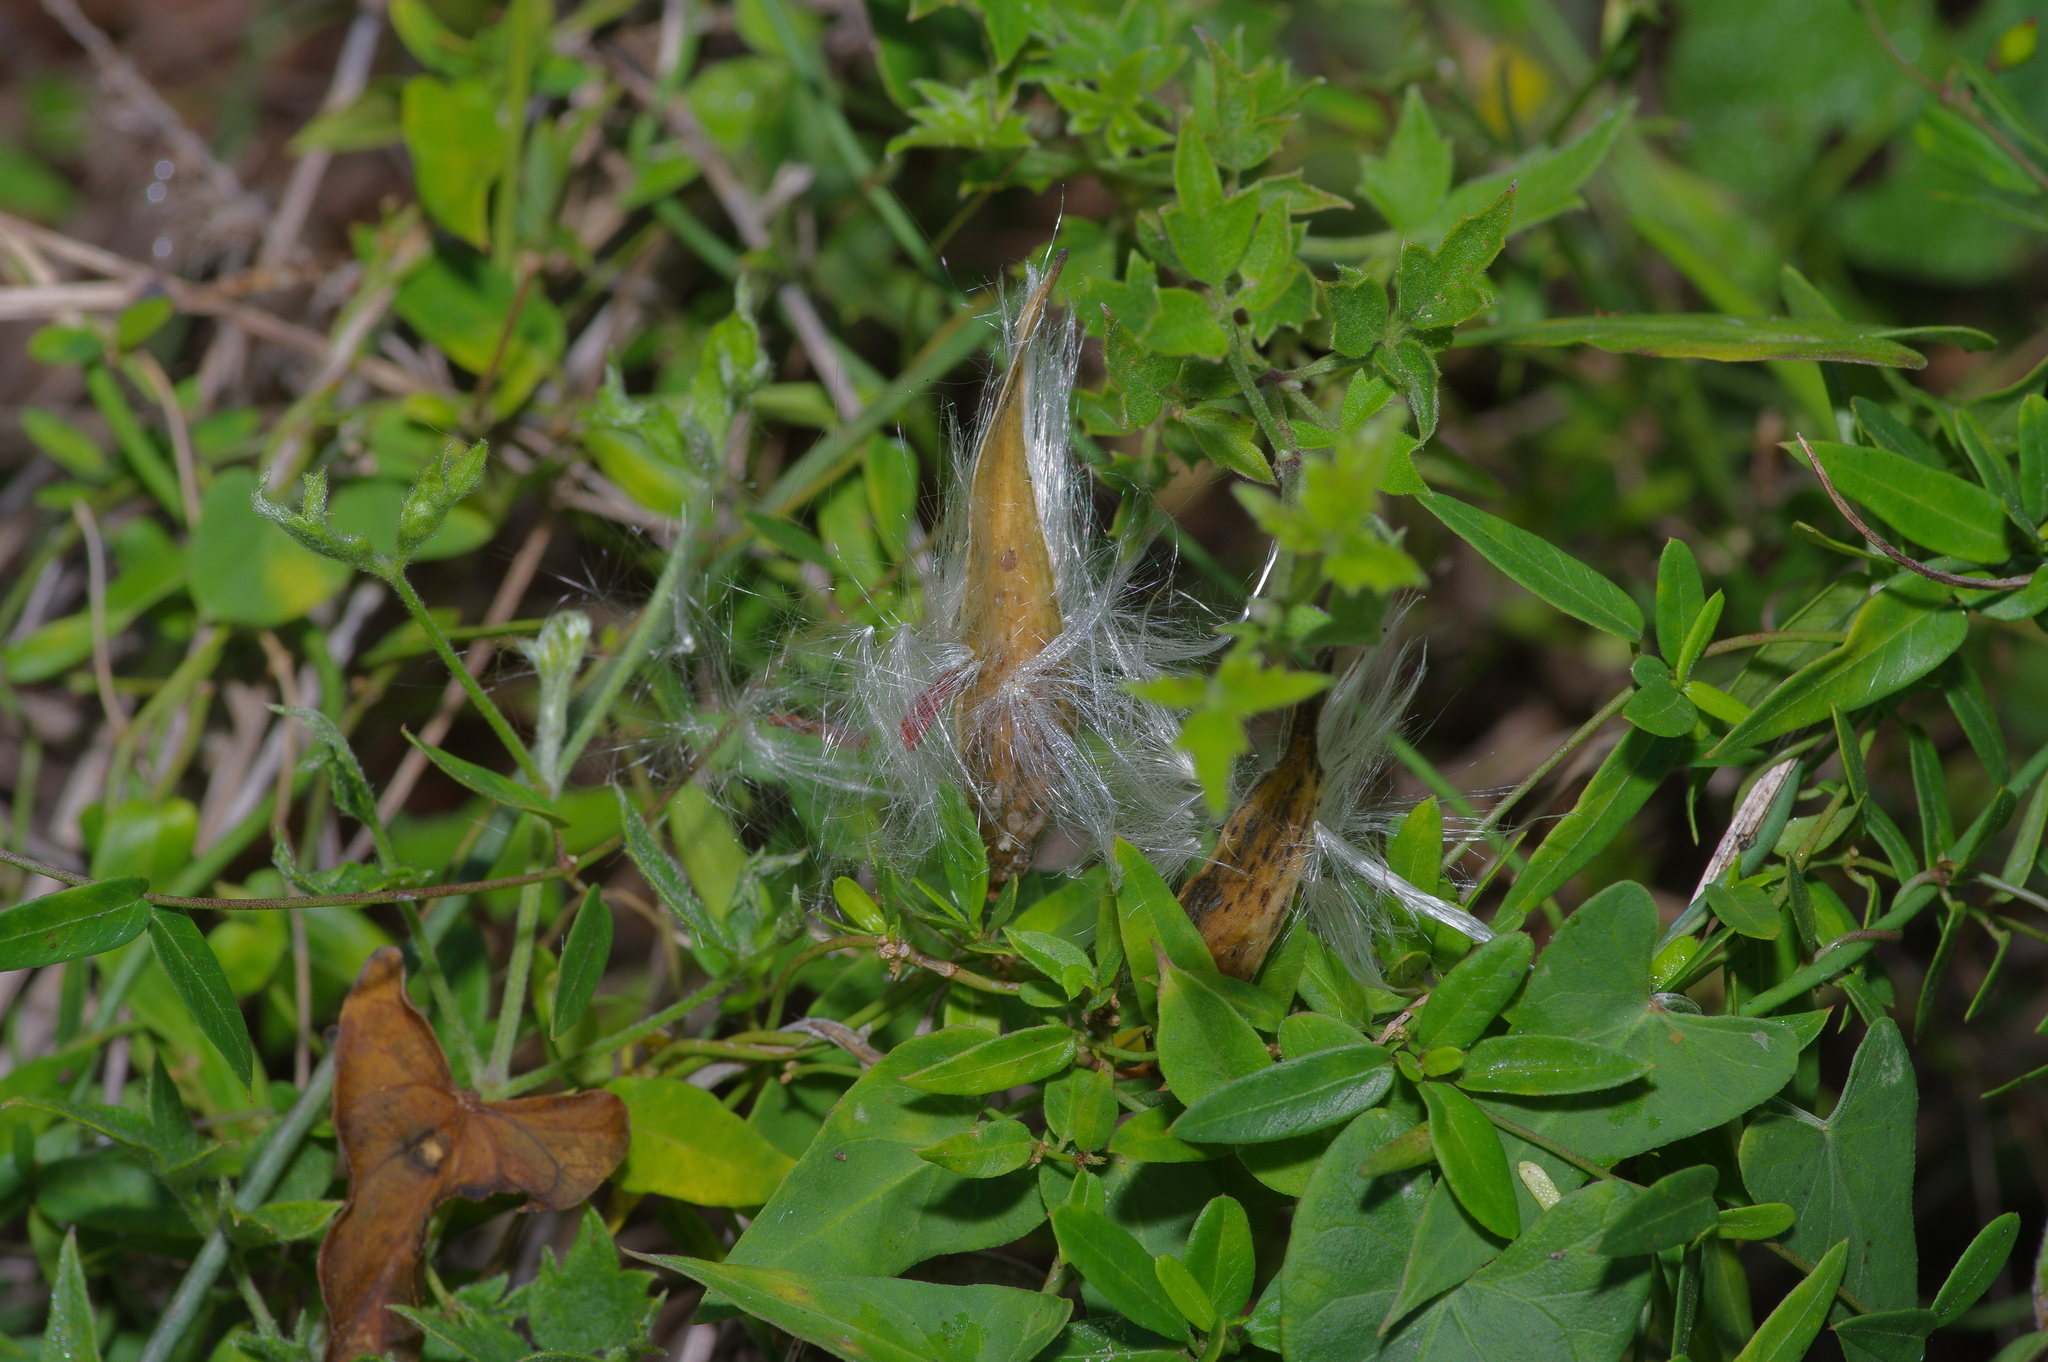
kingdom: Plantae
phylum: Tracheophyta
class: Magnoliopsida
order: Gentianales
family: Apocynaceae
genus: Metastelma
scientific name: Metastelma barbigerum
